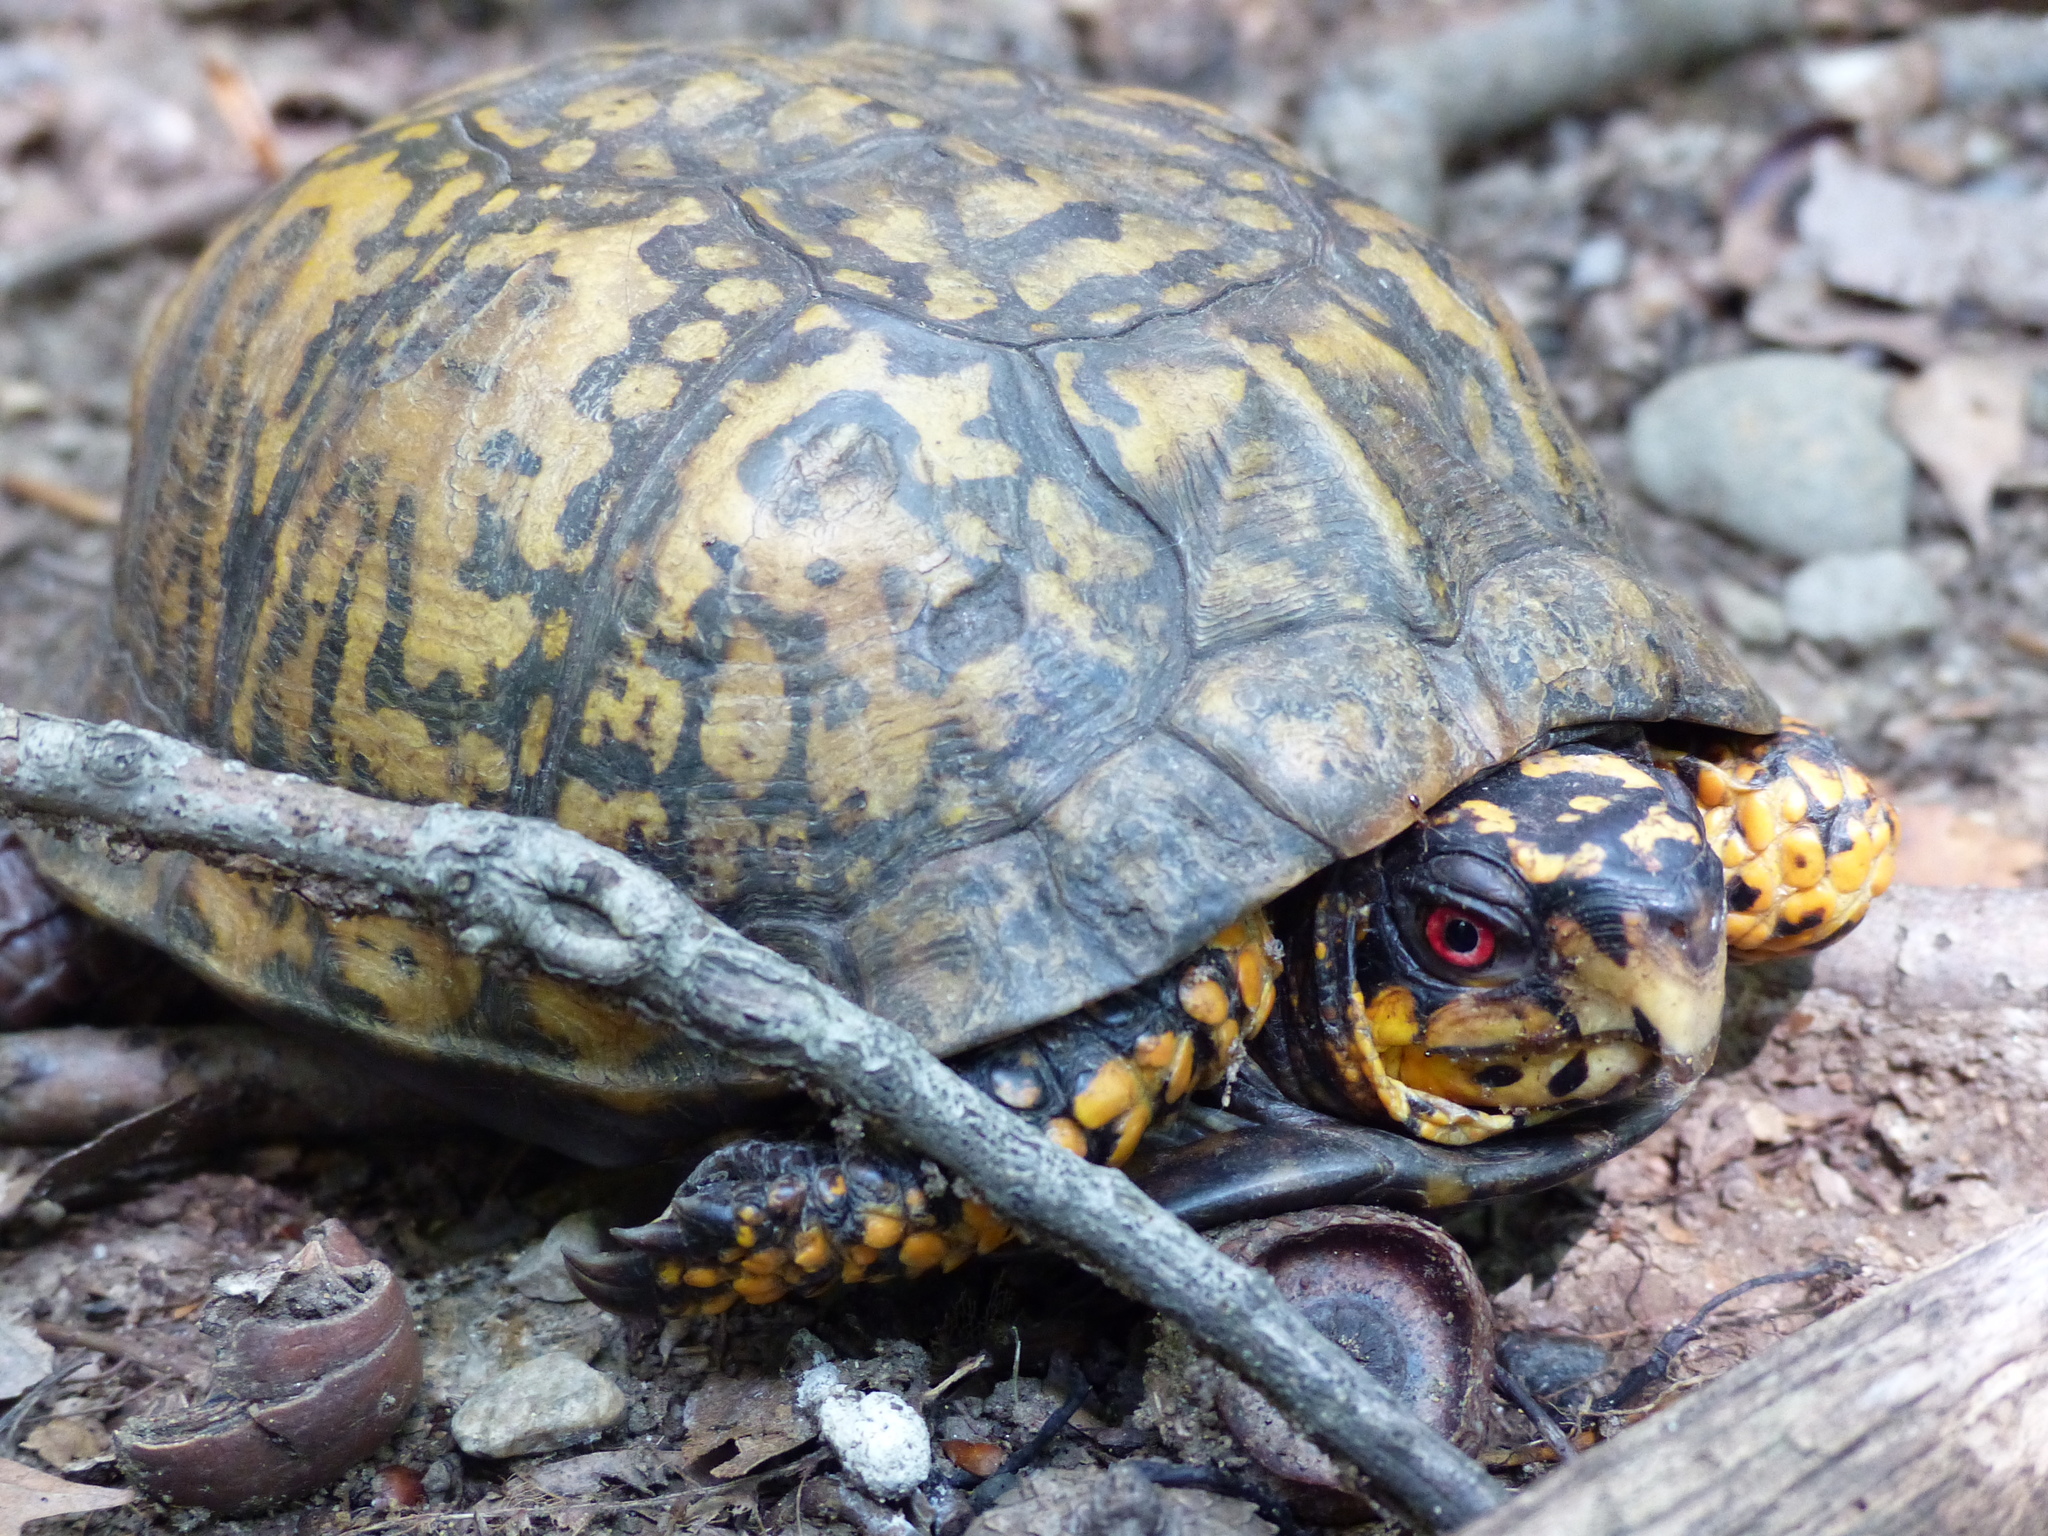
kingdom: Animalia
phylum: Chordata
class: Testudines
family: Emydidae
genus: Terrapene
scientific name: Terrapene carolina
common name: Common box turtle
